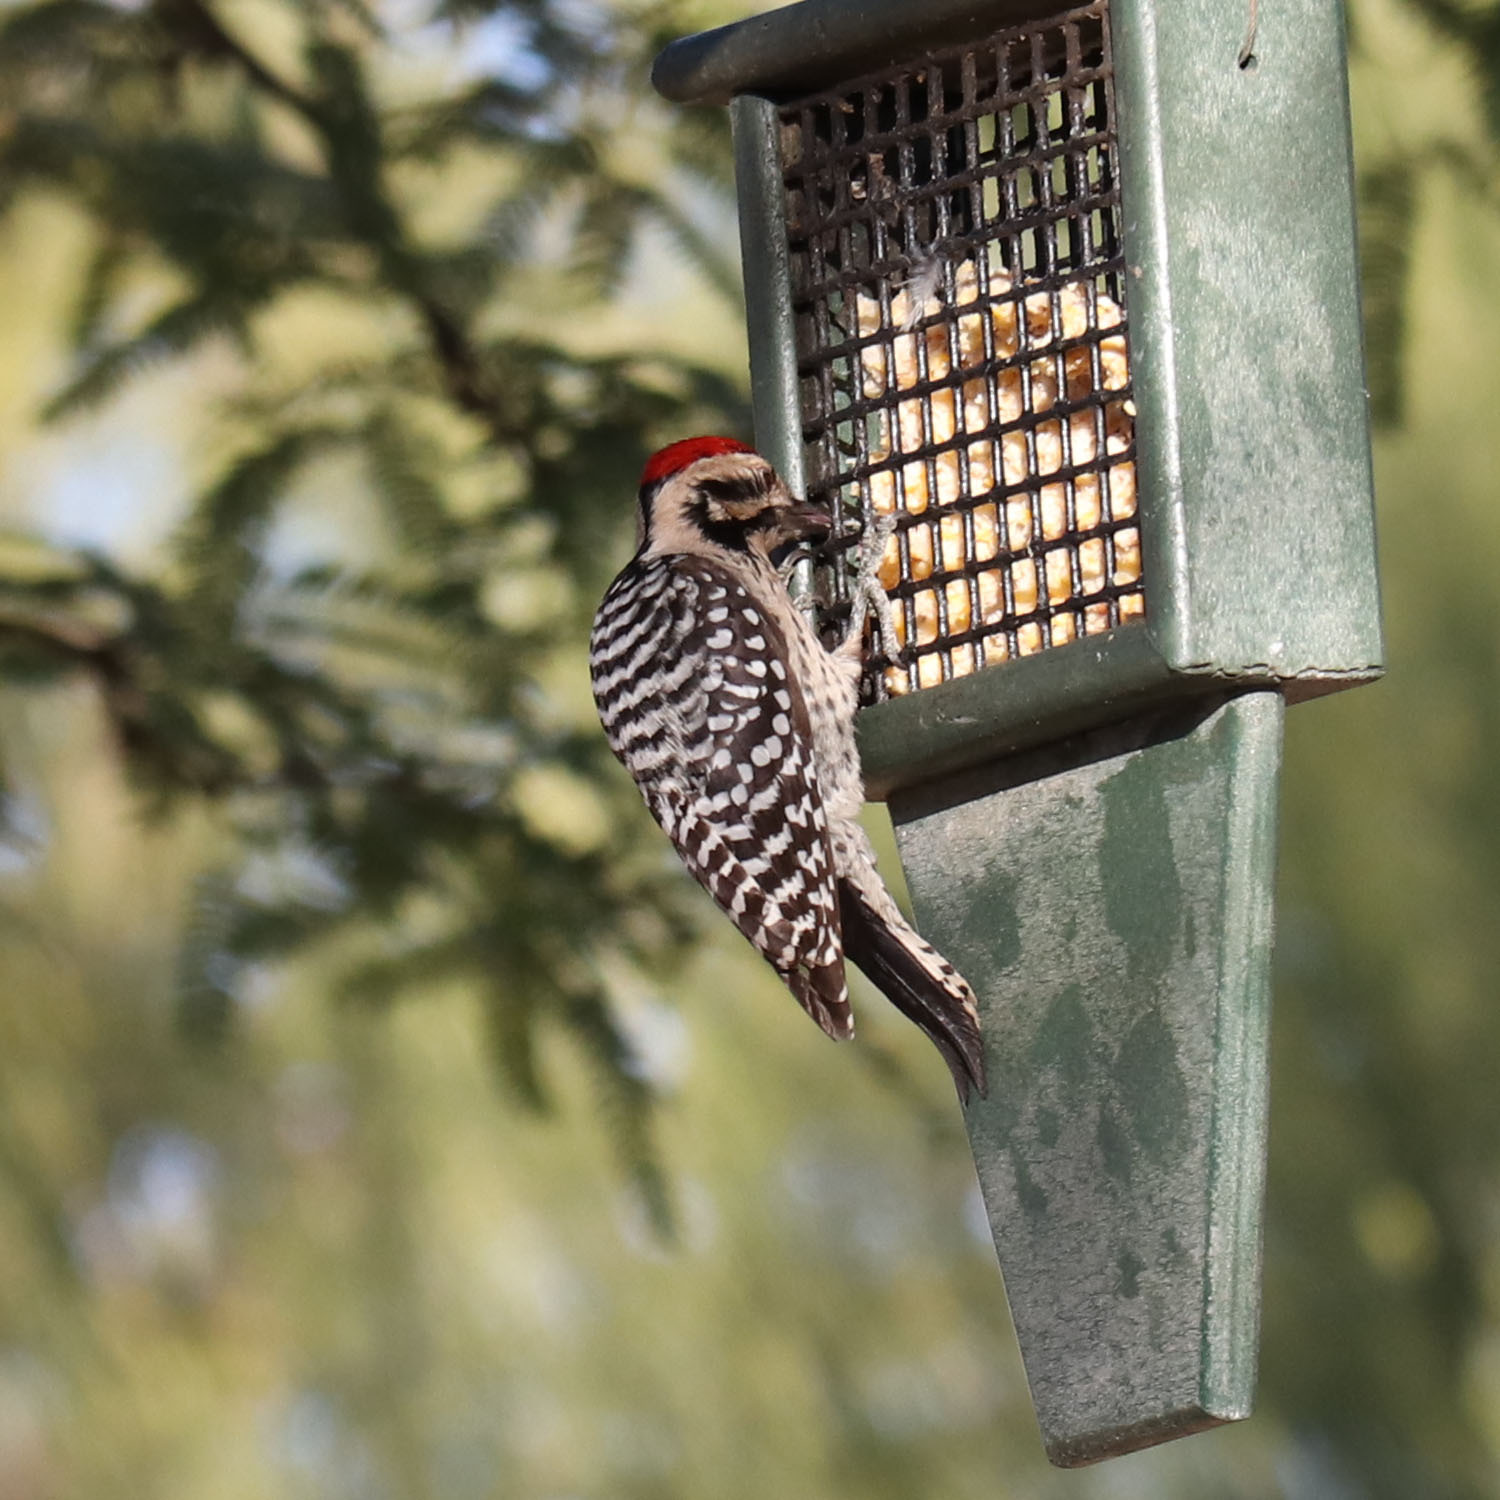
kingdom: Animalia
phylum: Chordata
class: Aves
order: Piciformes
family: Picidae
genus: Dryobates
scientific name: Dryobates scalaris
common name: Ladder-backed woodpecker
